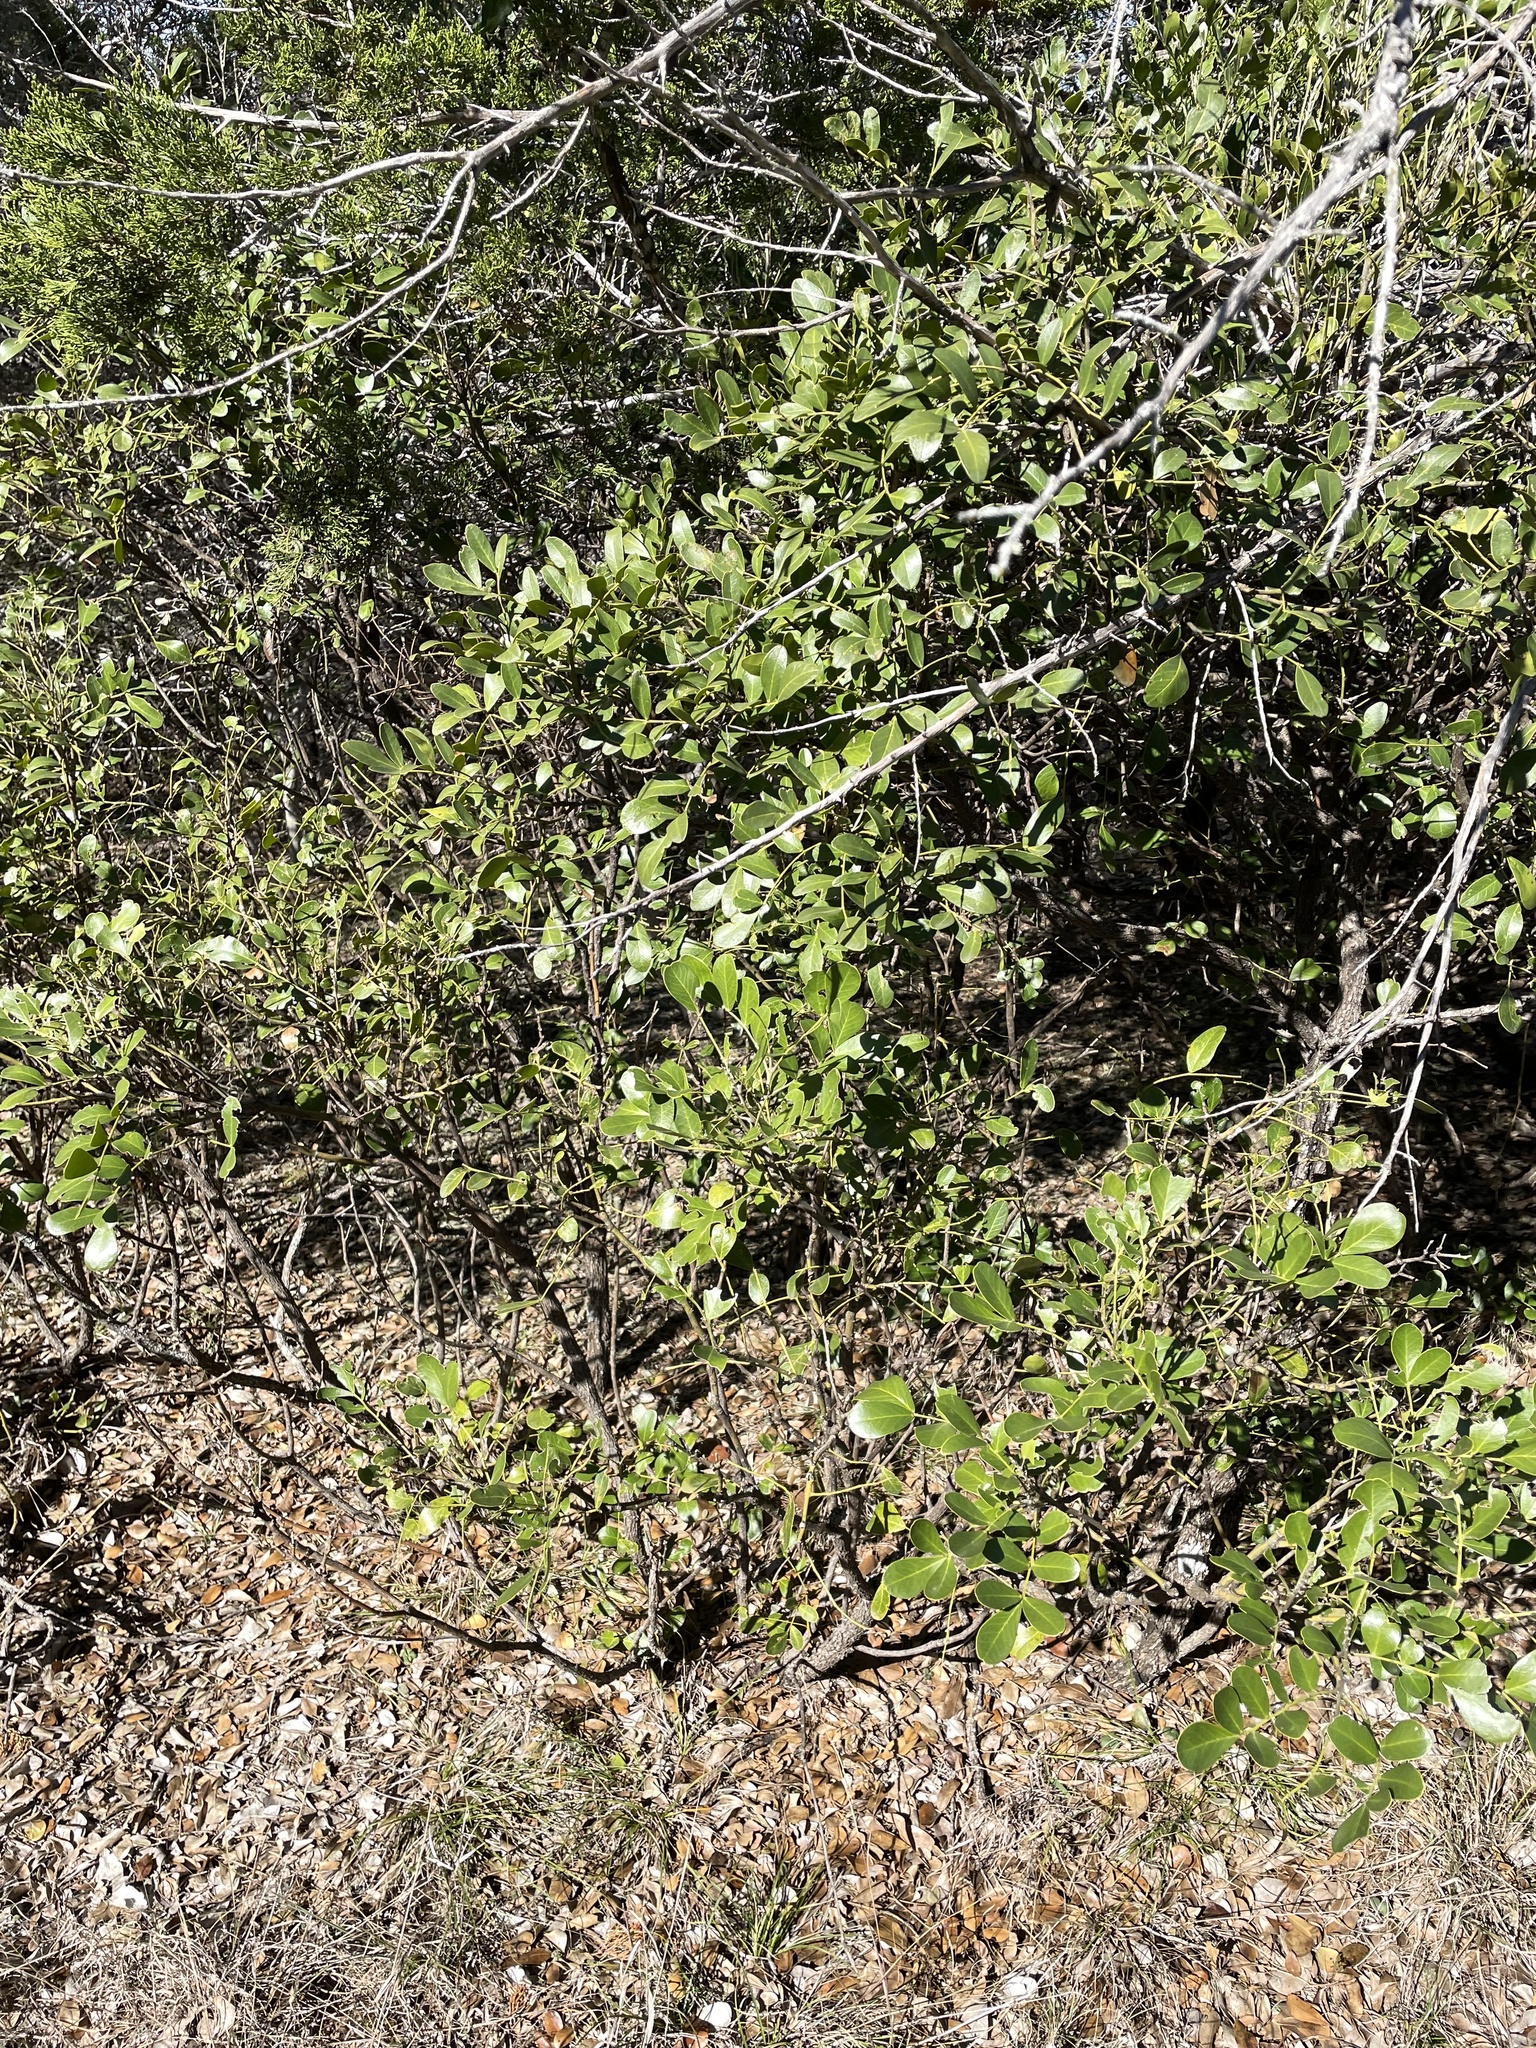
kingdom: Plantae
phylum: Tracheophyta
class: Magnoliopsida
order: Fabales
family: Fabaceae
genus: Dermatophyllum
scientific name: Dermatophyllum secundiflorum
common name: Texas-mountain-laurel
